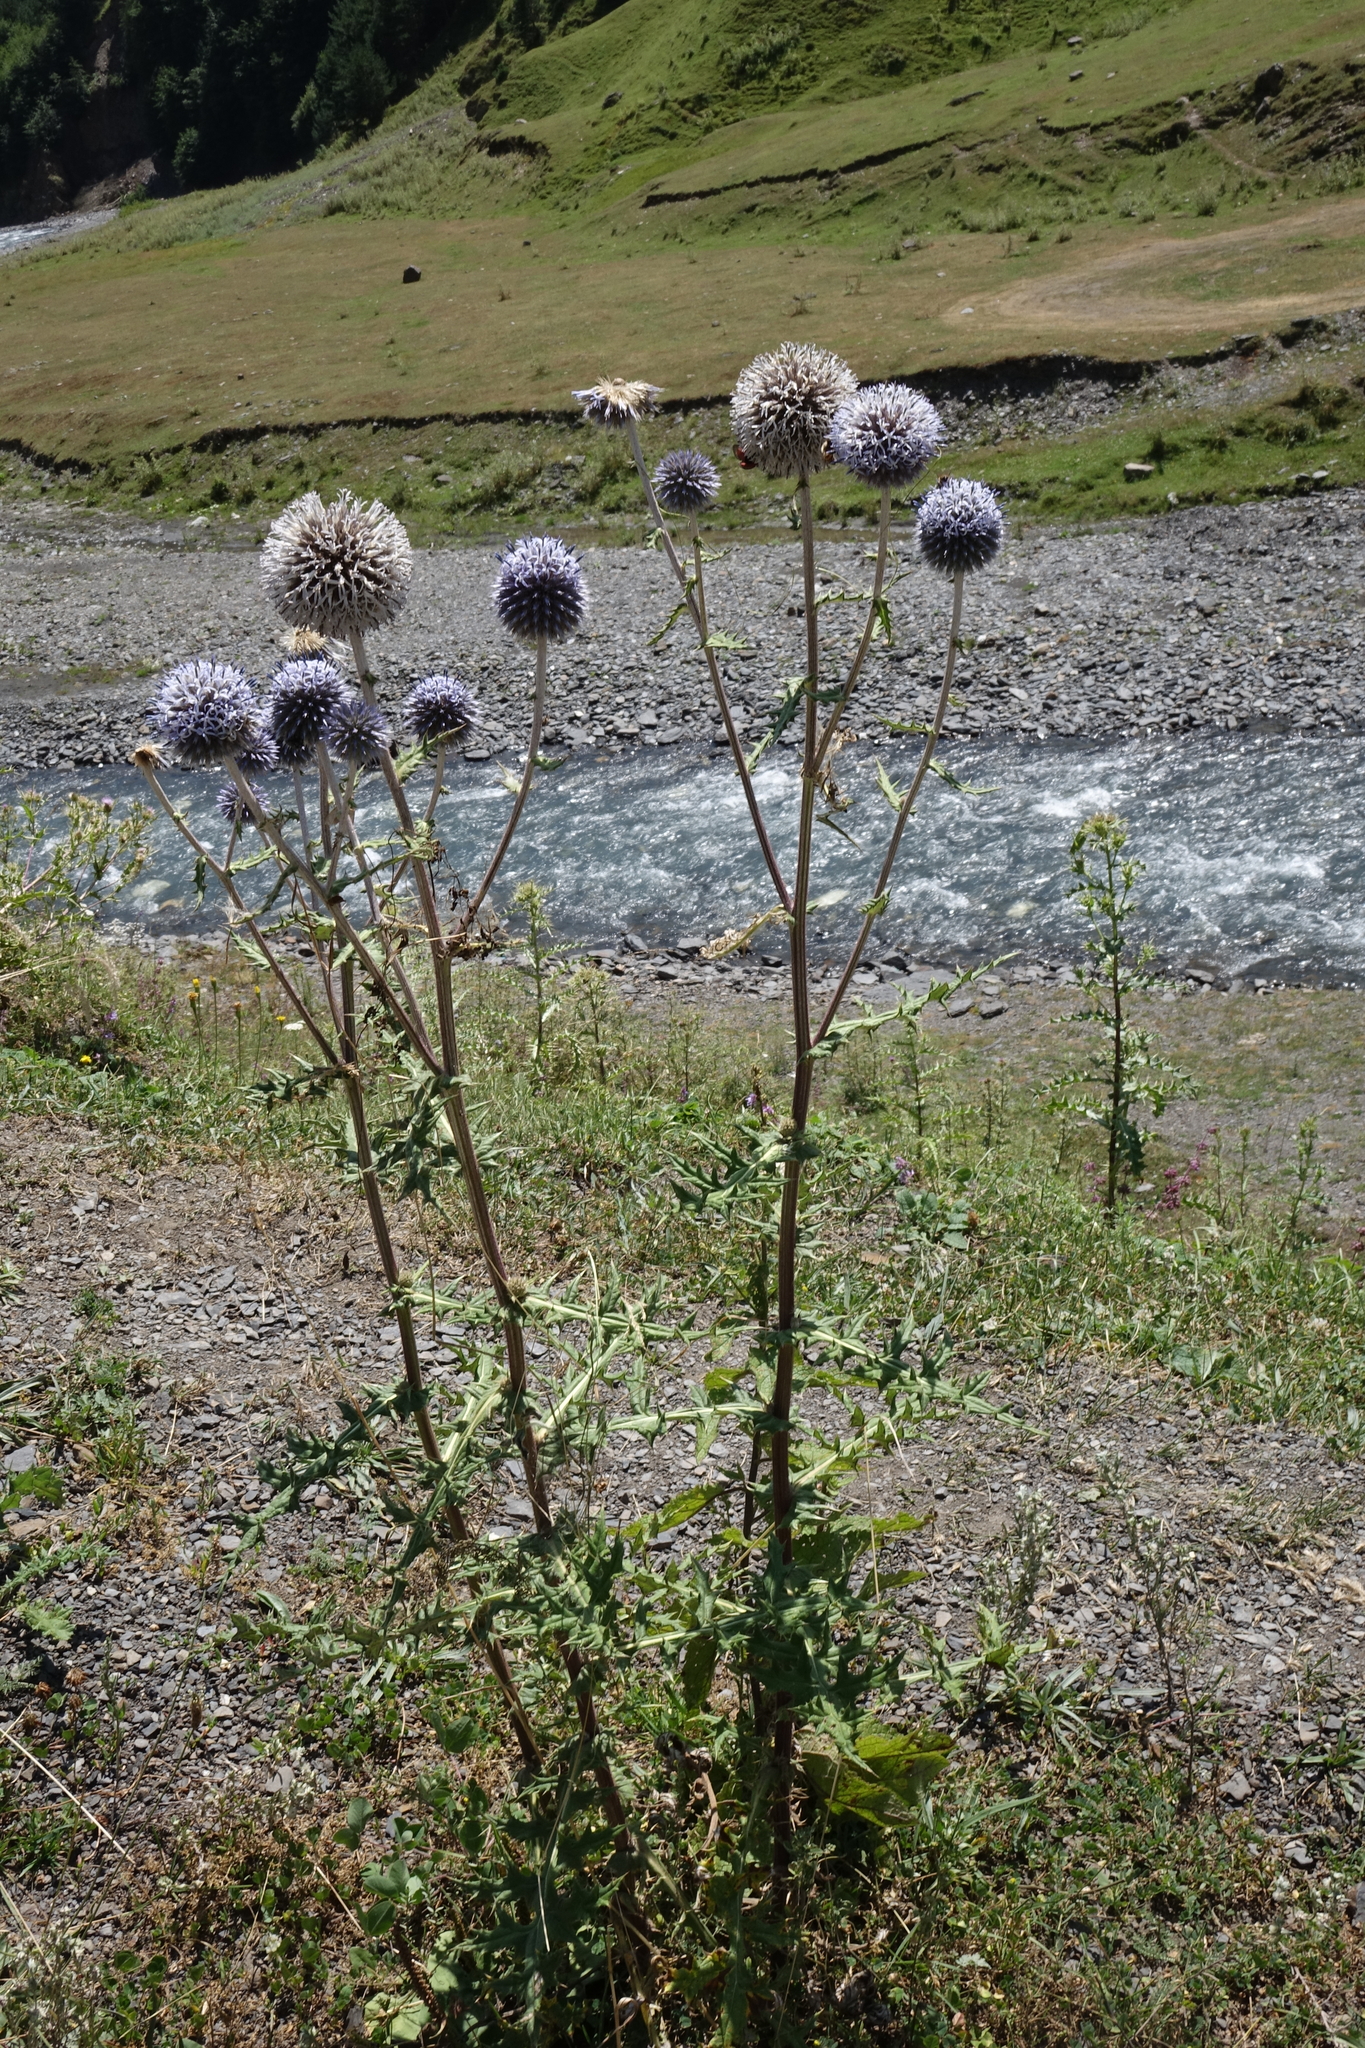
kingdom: Plantae
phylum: Tracheophyta
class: Magnoliopsida
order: Asterales
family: Asteraceae
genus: Echinops
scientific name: Echinops sphaerocephalus
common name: Glandular globe-thistle
